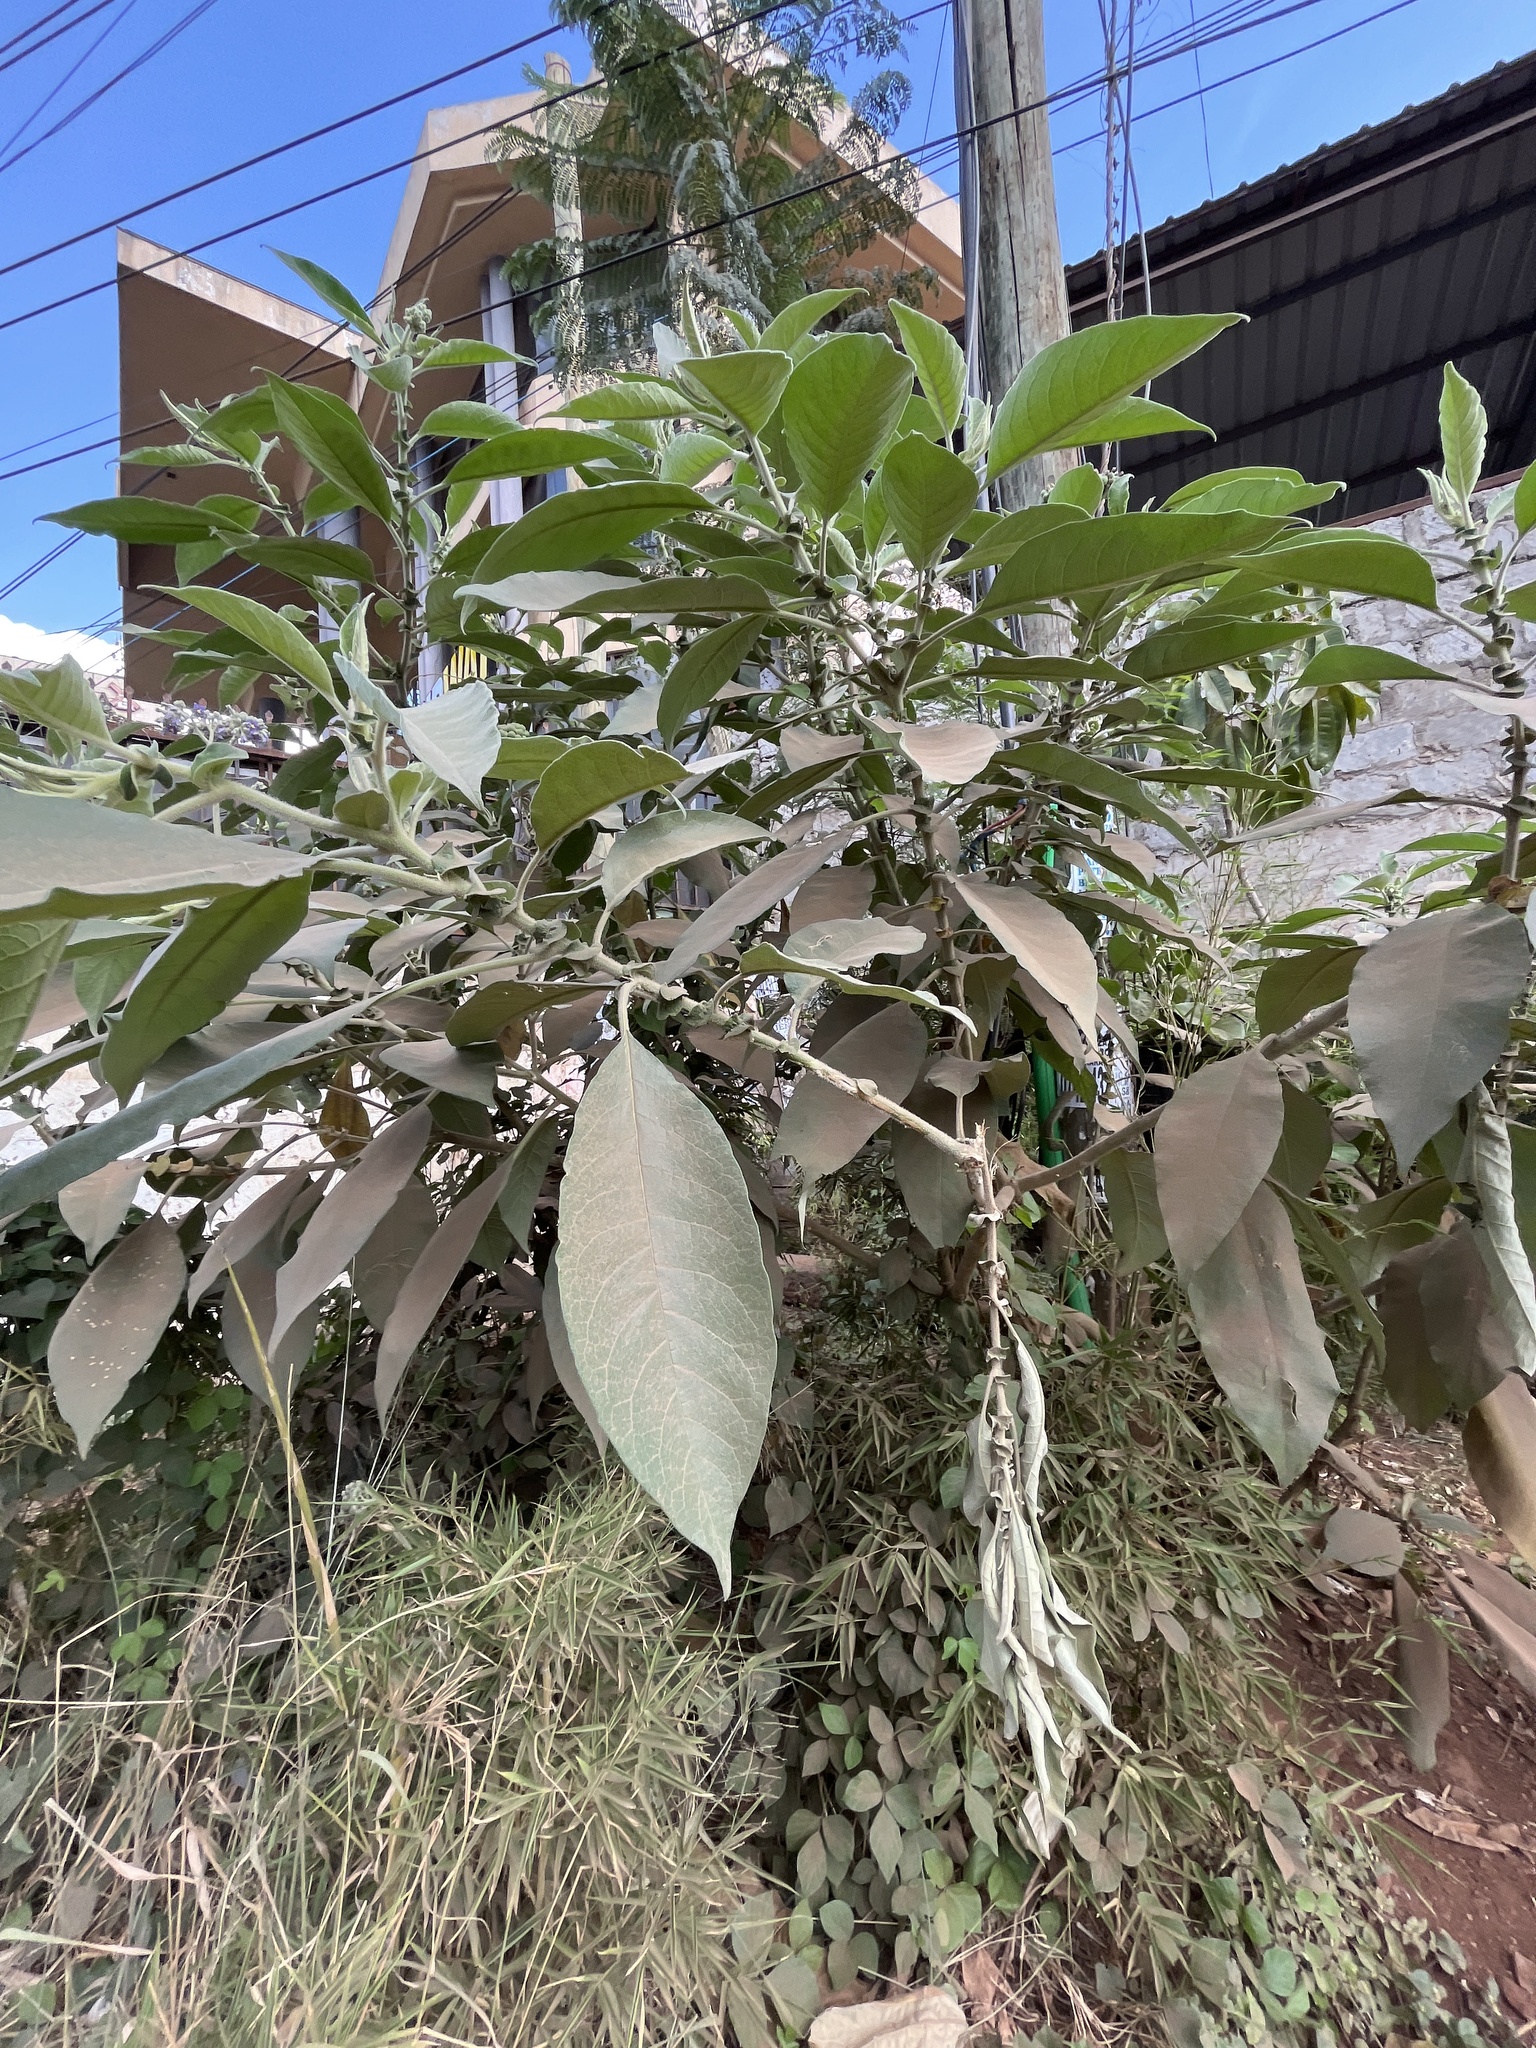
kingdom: Plantae
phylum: Tracheophyta
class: Magnoliopsida
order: Solanales
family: Solanaceae
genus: Solanum
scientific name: Solanum mauritianum
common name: Earleaf nightshade
